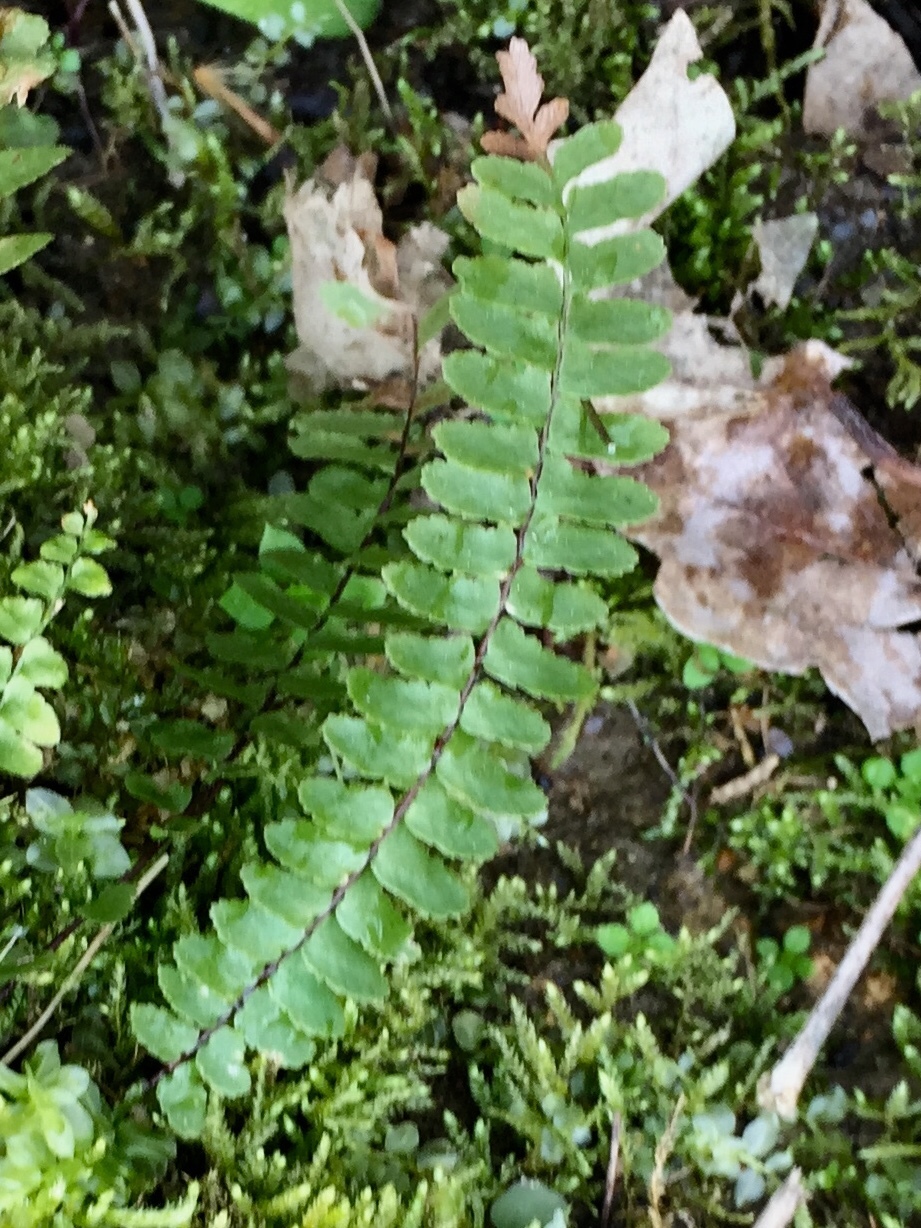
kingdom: Plantae
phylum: Tracheophyta
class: Polypodiopsida
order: Polypodiales
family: Aspleniaceae
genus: Asplenium
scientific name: Asplenium platyneuron
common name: Ebony spleenwort
